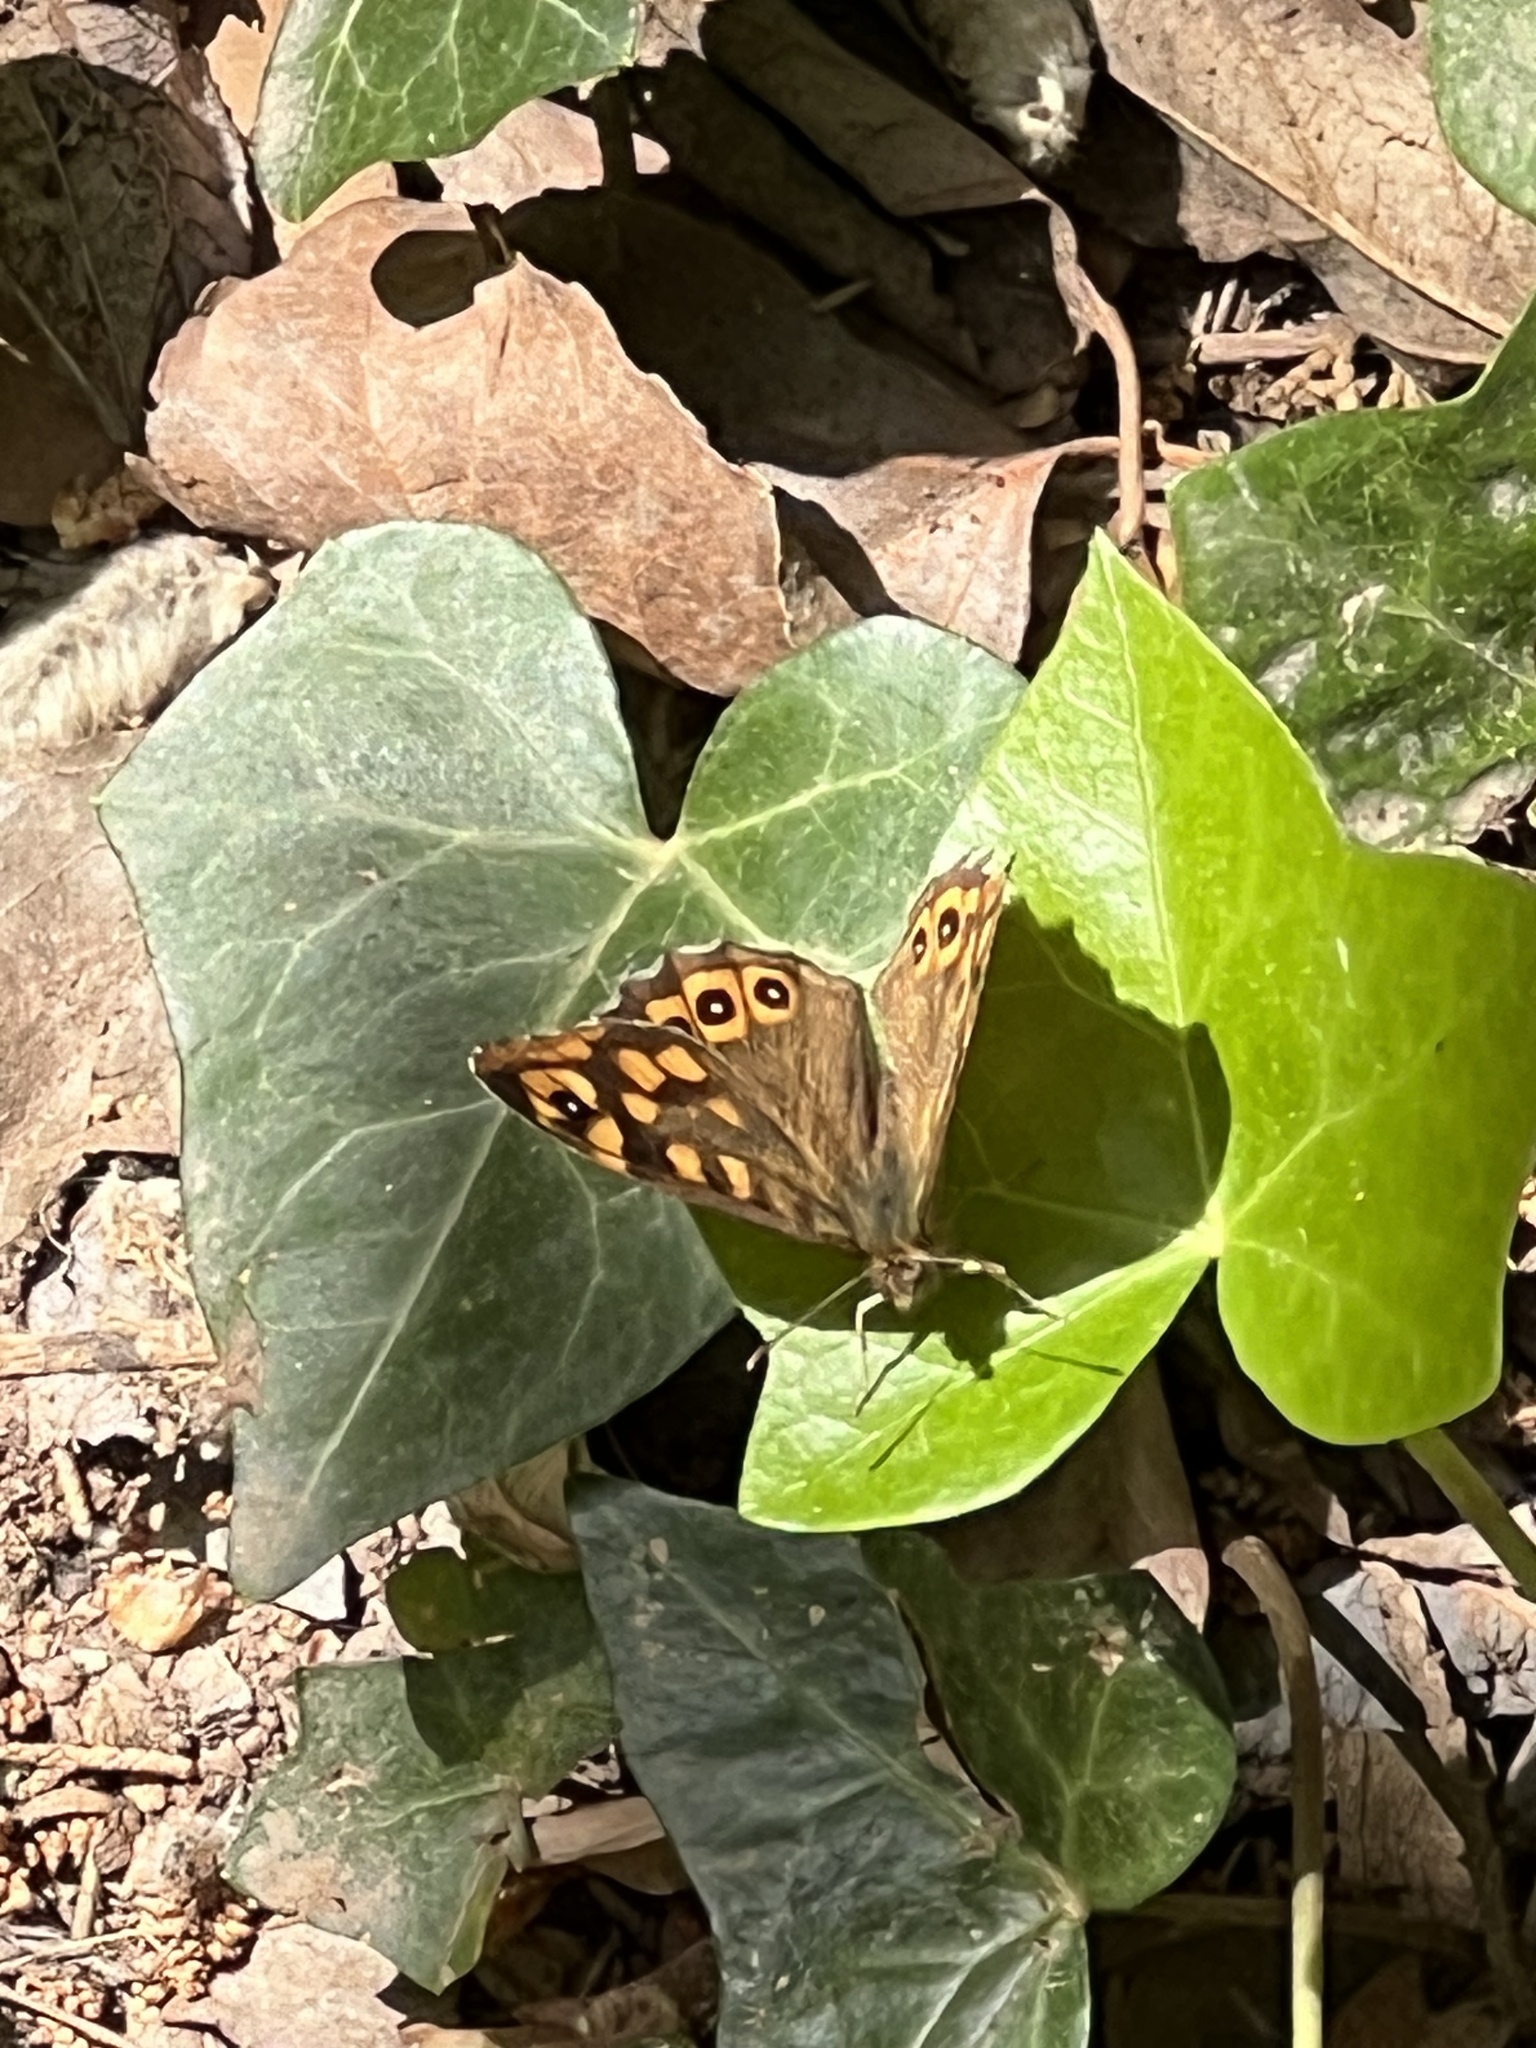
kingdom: Animalia
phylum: Arthropoda
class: Insecta
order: Lepidoptera
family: Nymphalidae
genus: Pararge
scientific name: Pararge aegeria
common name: Speckled wood
